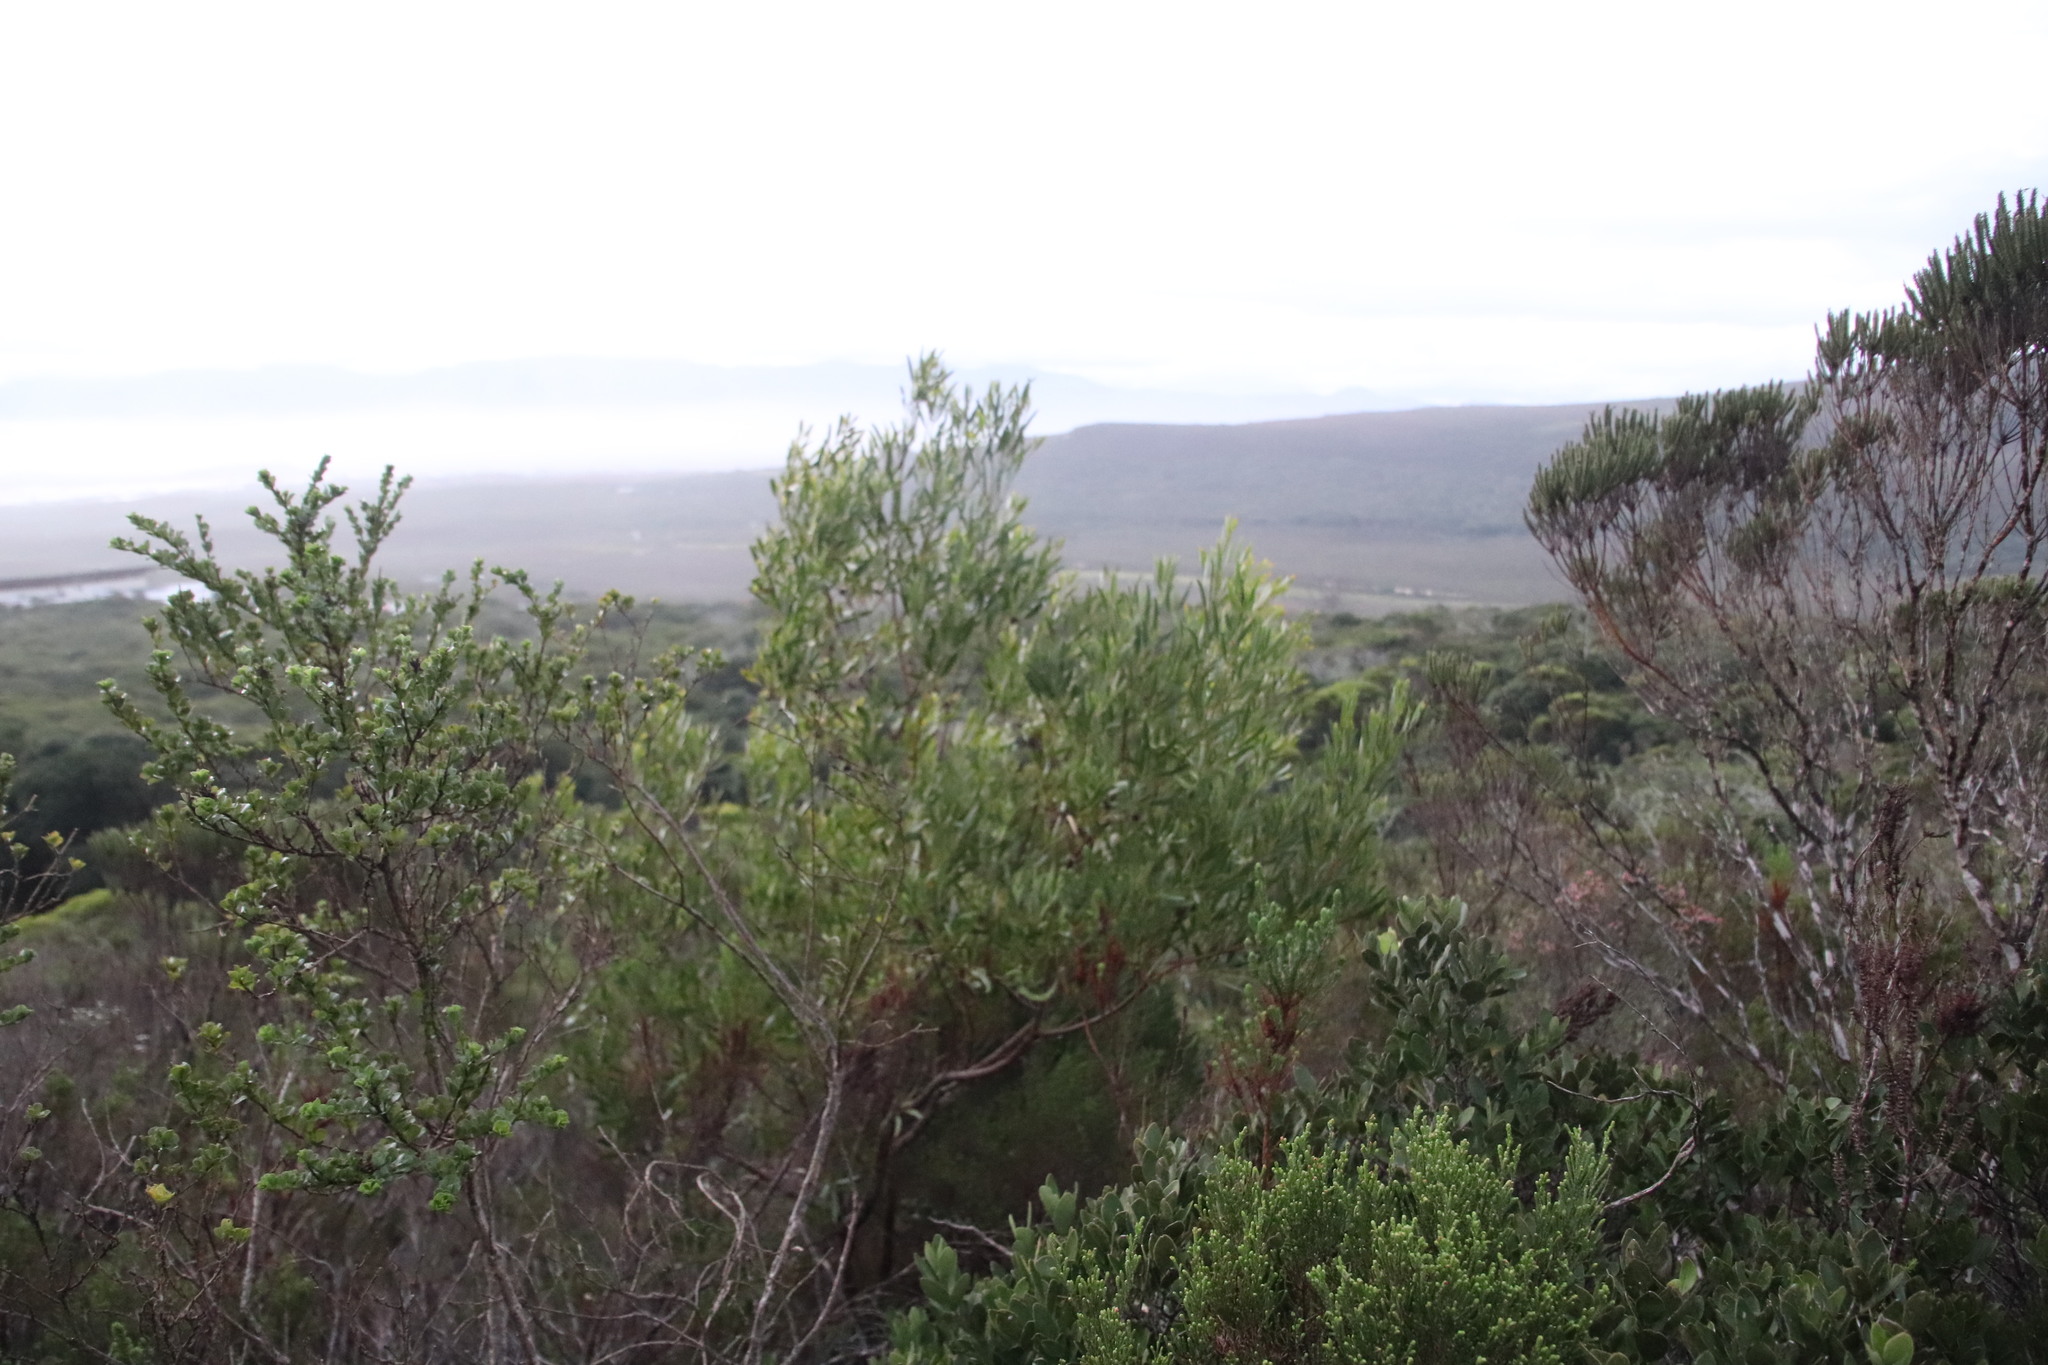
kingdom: Plantae
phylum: Tracheophyta
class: Magnoliopsida
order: Fabales
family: Fabaceae
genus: Acacia
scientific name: Acacia cyclops
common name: Coastal wattle
